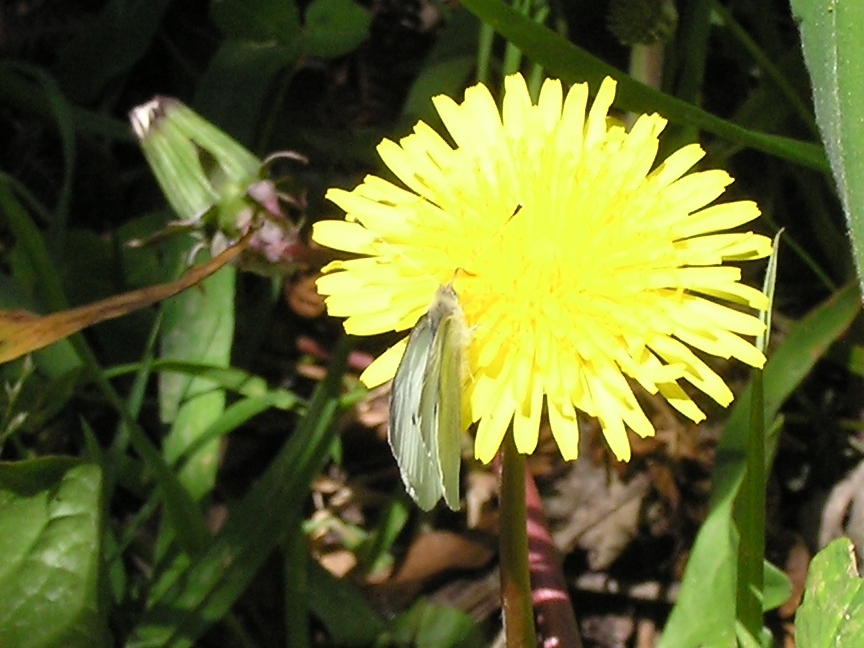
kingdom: Animalia
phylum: Arthropoda
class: Insecta
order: Lepidoptera
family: Pieridae
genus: Pieris
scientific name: Pieris rapae
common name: Small white
